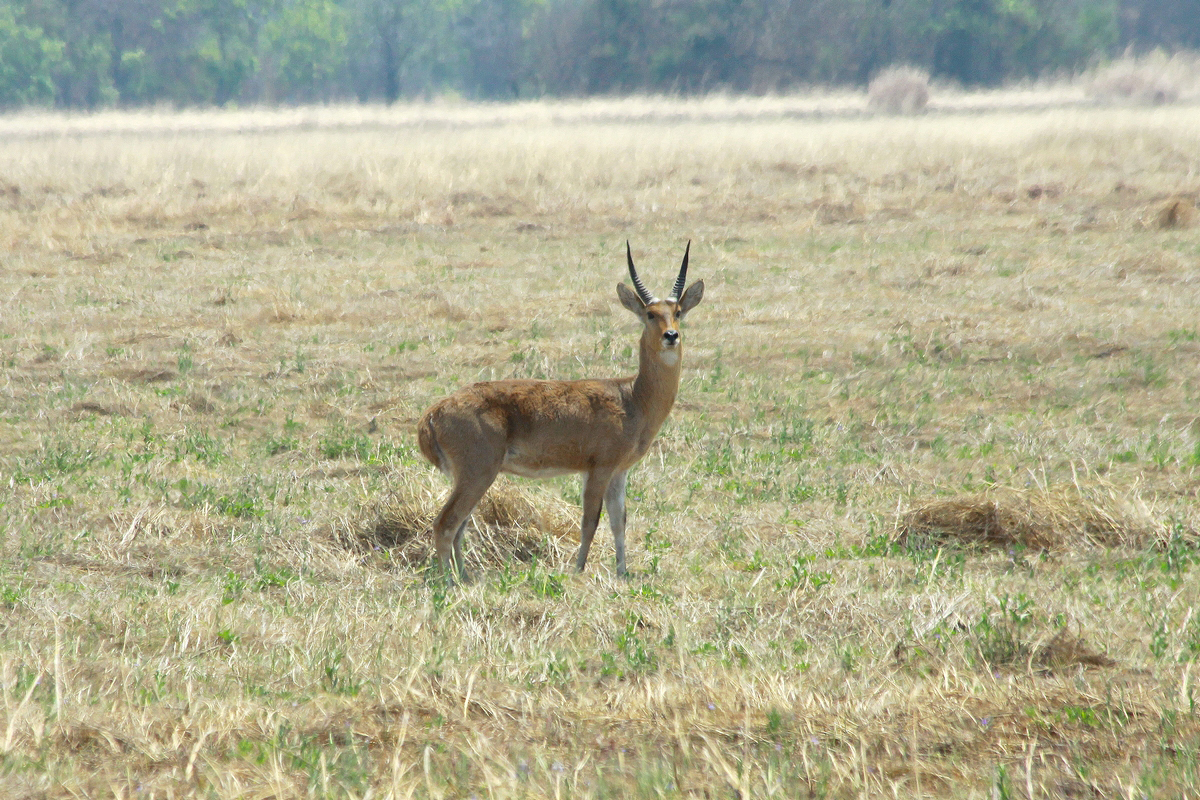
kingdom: Animalia
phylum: Chordata
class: Mammalia
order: Artiodactyla
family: Bovidae
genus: Redunca
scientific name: Redunca arundinum
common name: Southern reedbuck
